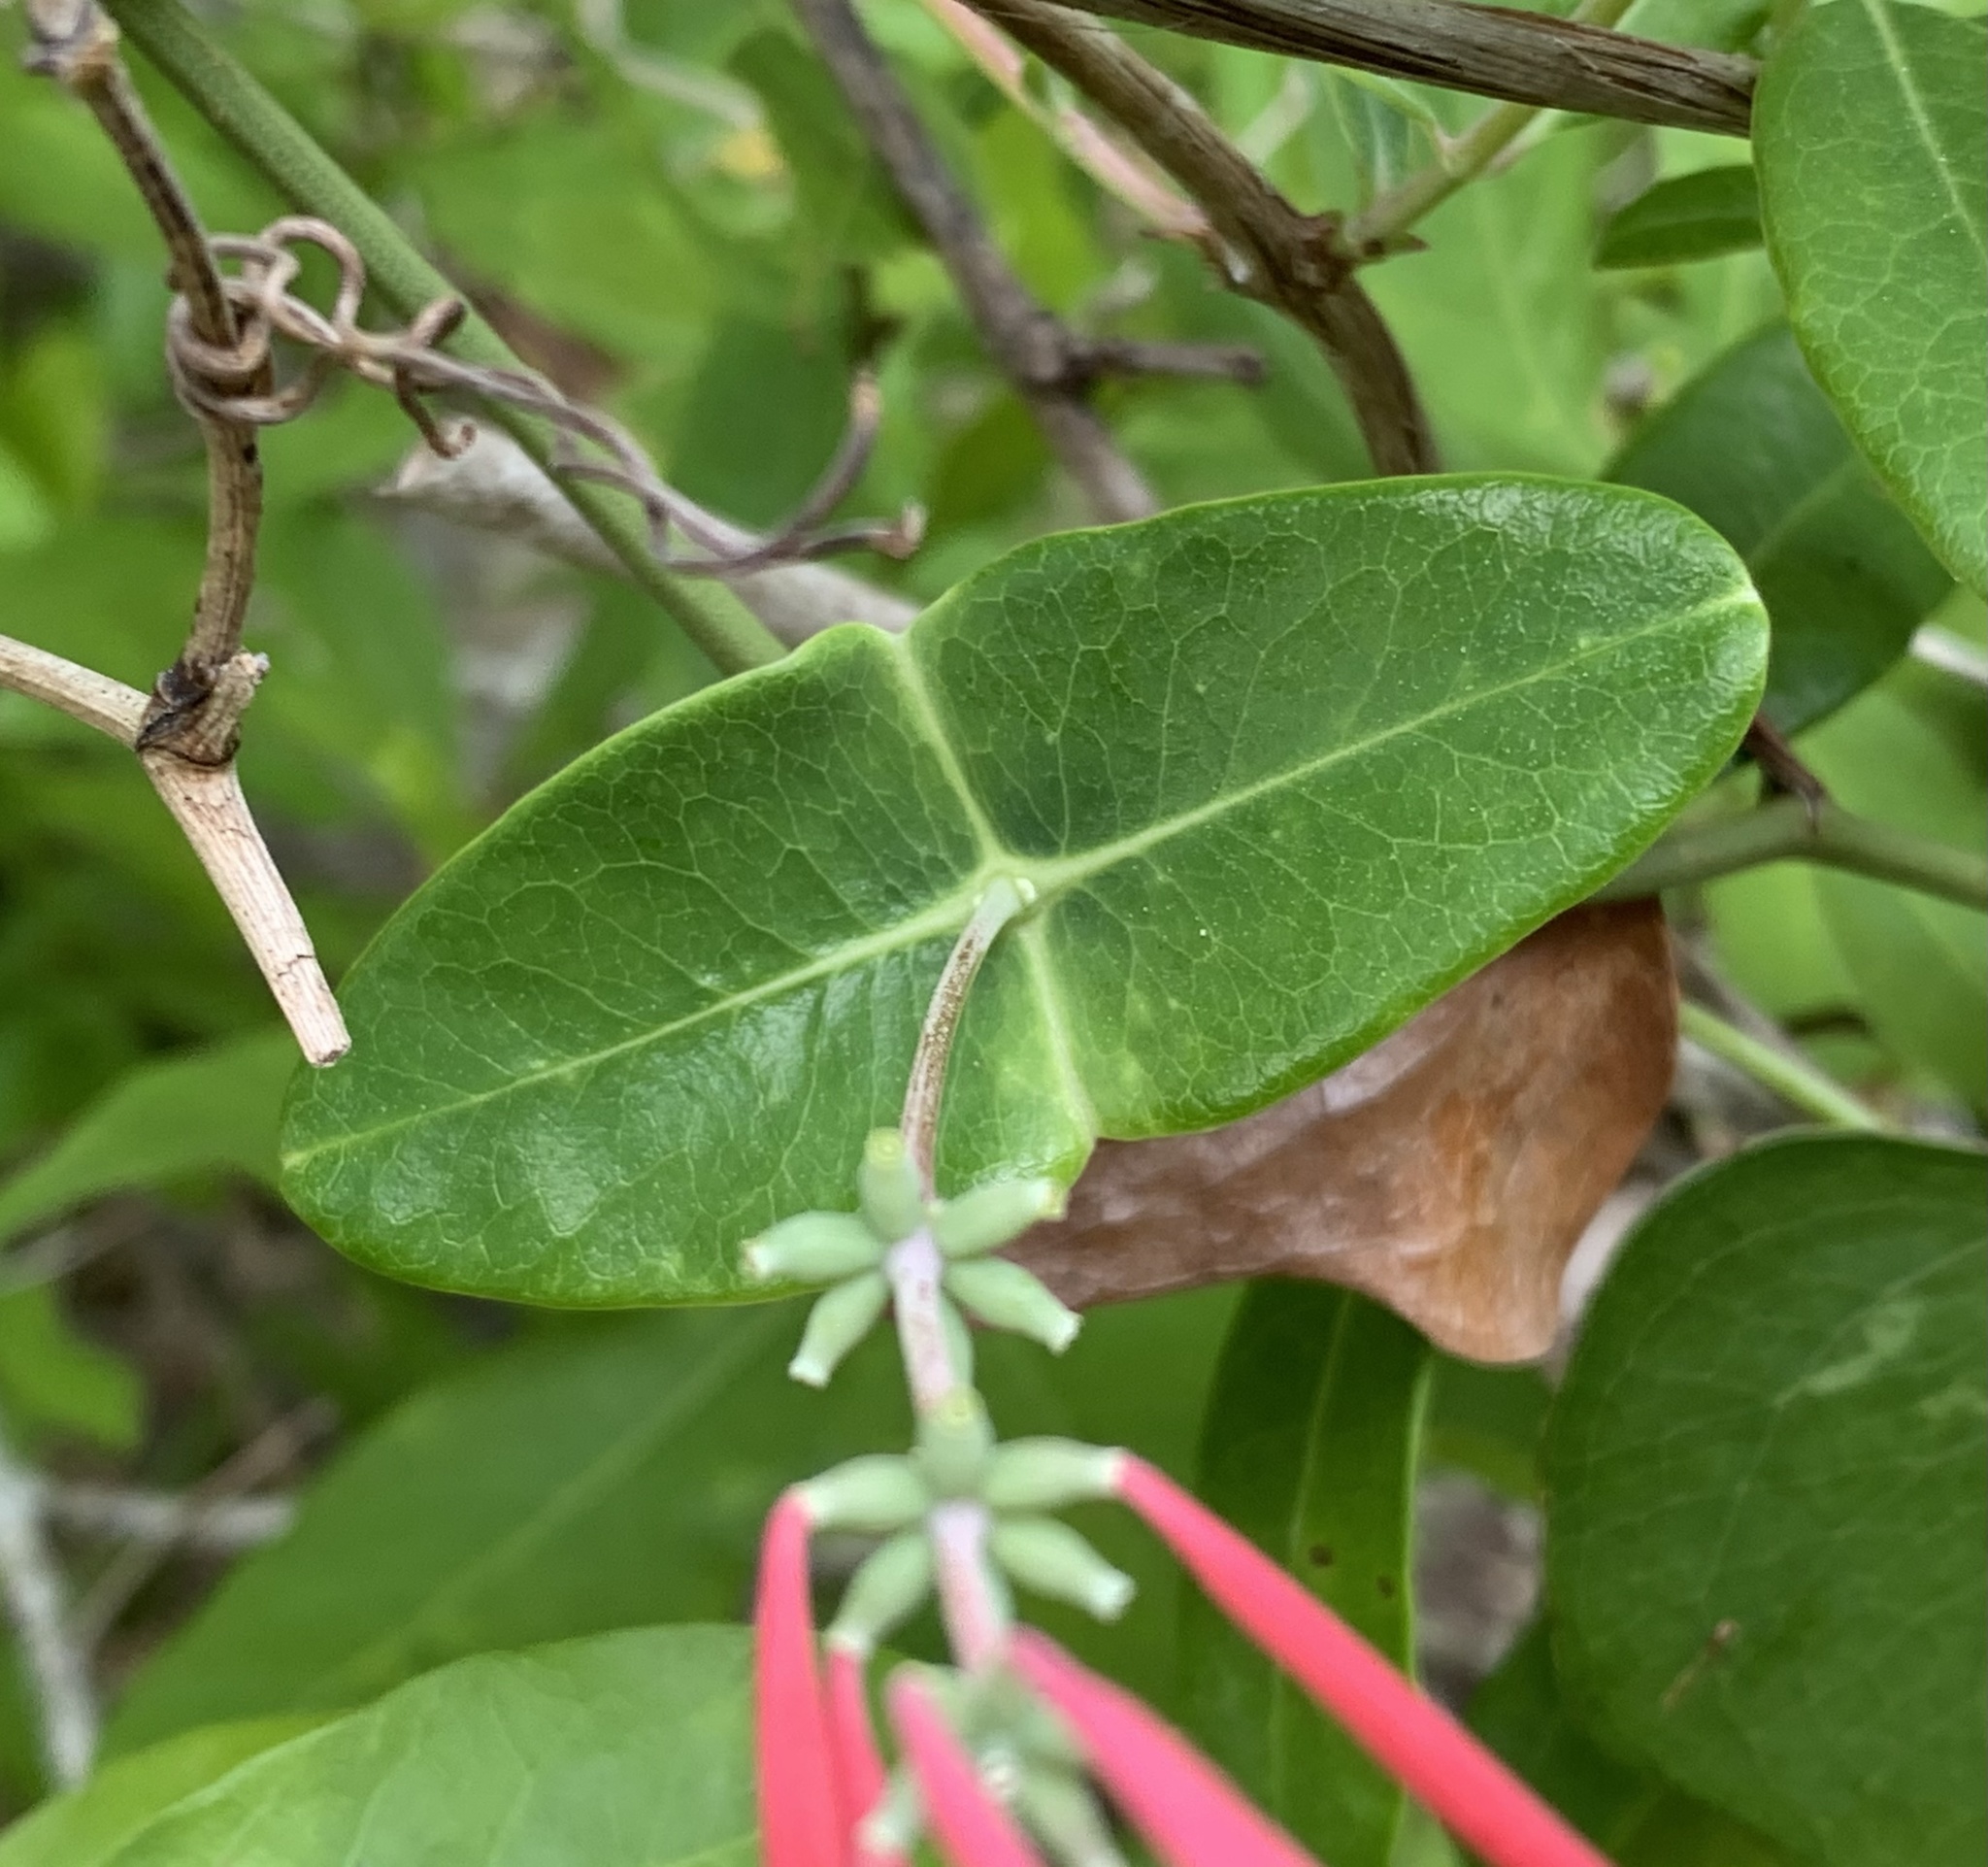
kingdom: Plantae
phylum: Tracheophyta
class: Magnoliopsida
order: Dipsacales
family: Caprifoliaceae
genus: Lonicera
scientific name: Lonicera sempervirens
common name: Coral honeysuckle
